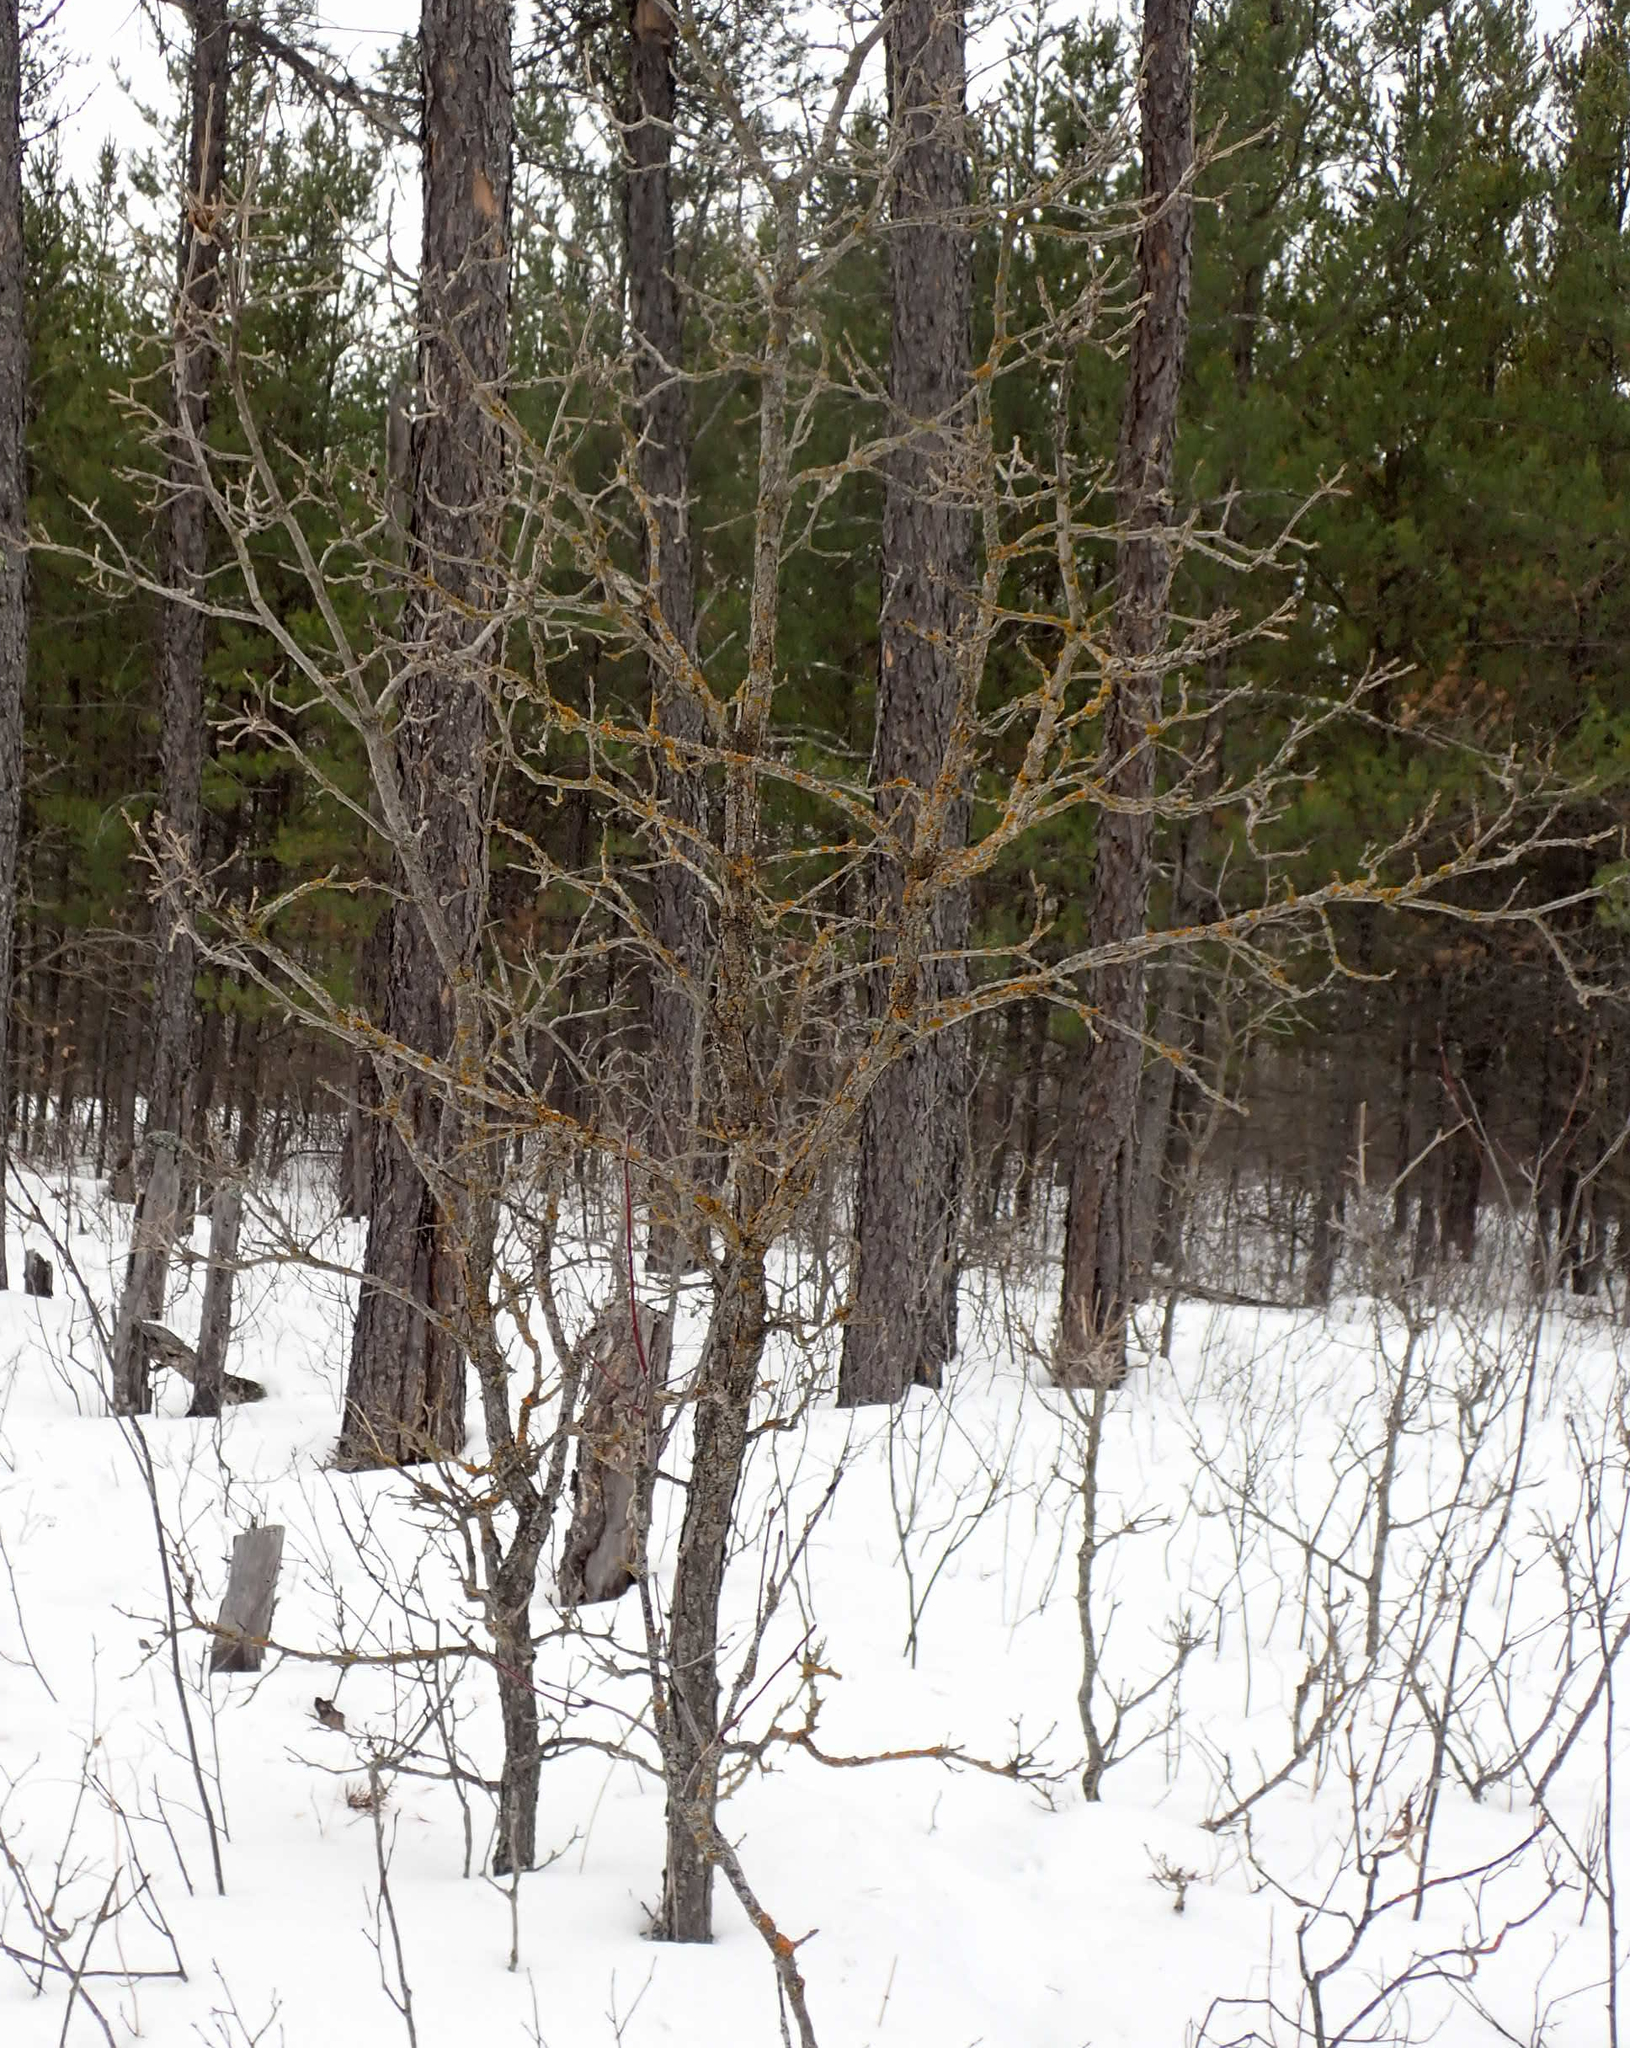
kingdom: Plantae
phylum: Tracheophyta
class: Magnoliopsida
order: Fagales
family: Fagaceae
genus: Quercus
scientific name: Quercus macrocarpa
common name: Bur oak
